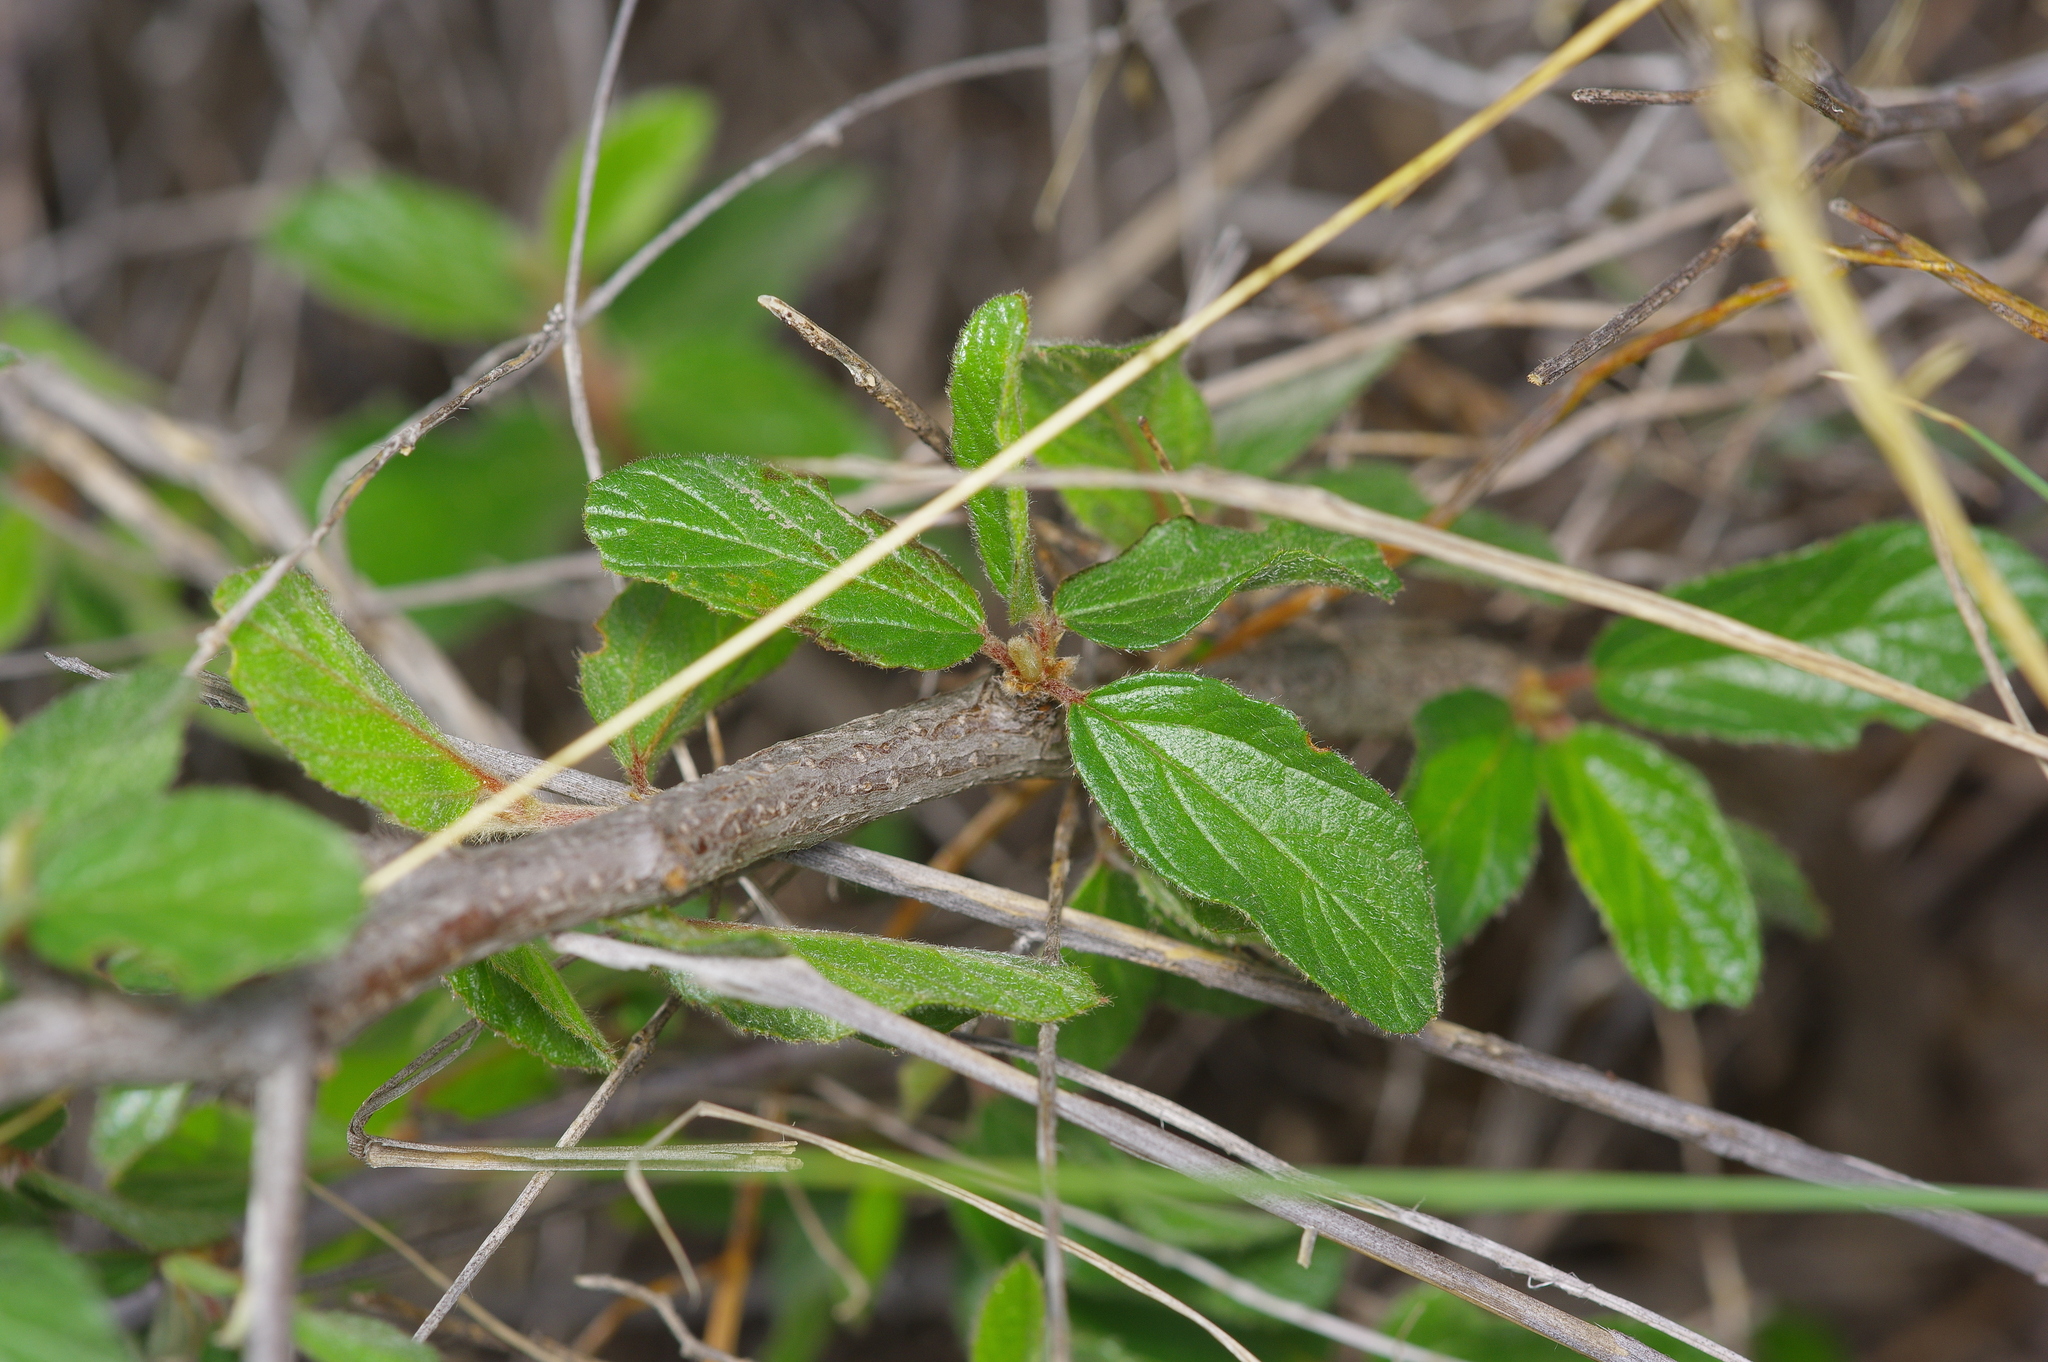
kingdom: Plantae
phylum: Tracheophyta
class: Magnoliopsida
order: Rosales
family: Rhamnaceae
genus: Colubrina
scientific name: Colubrina texensis
